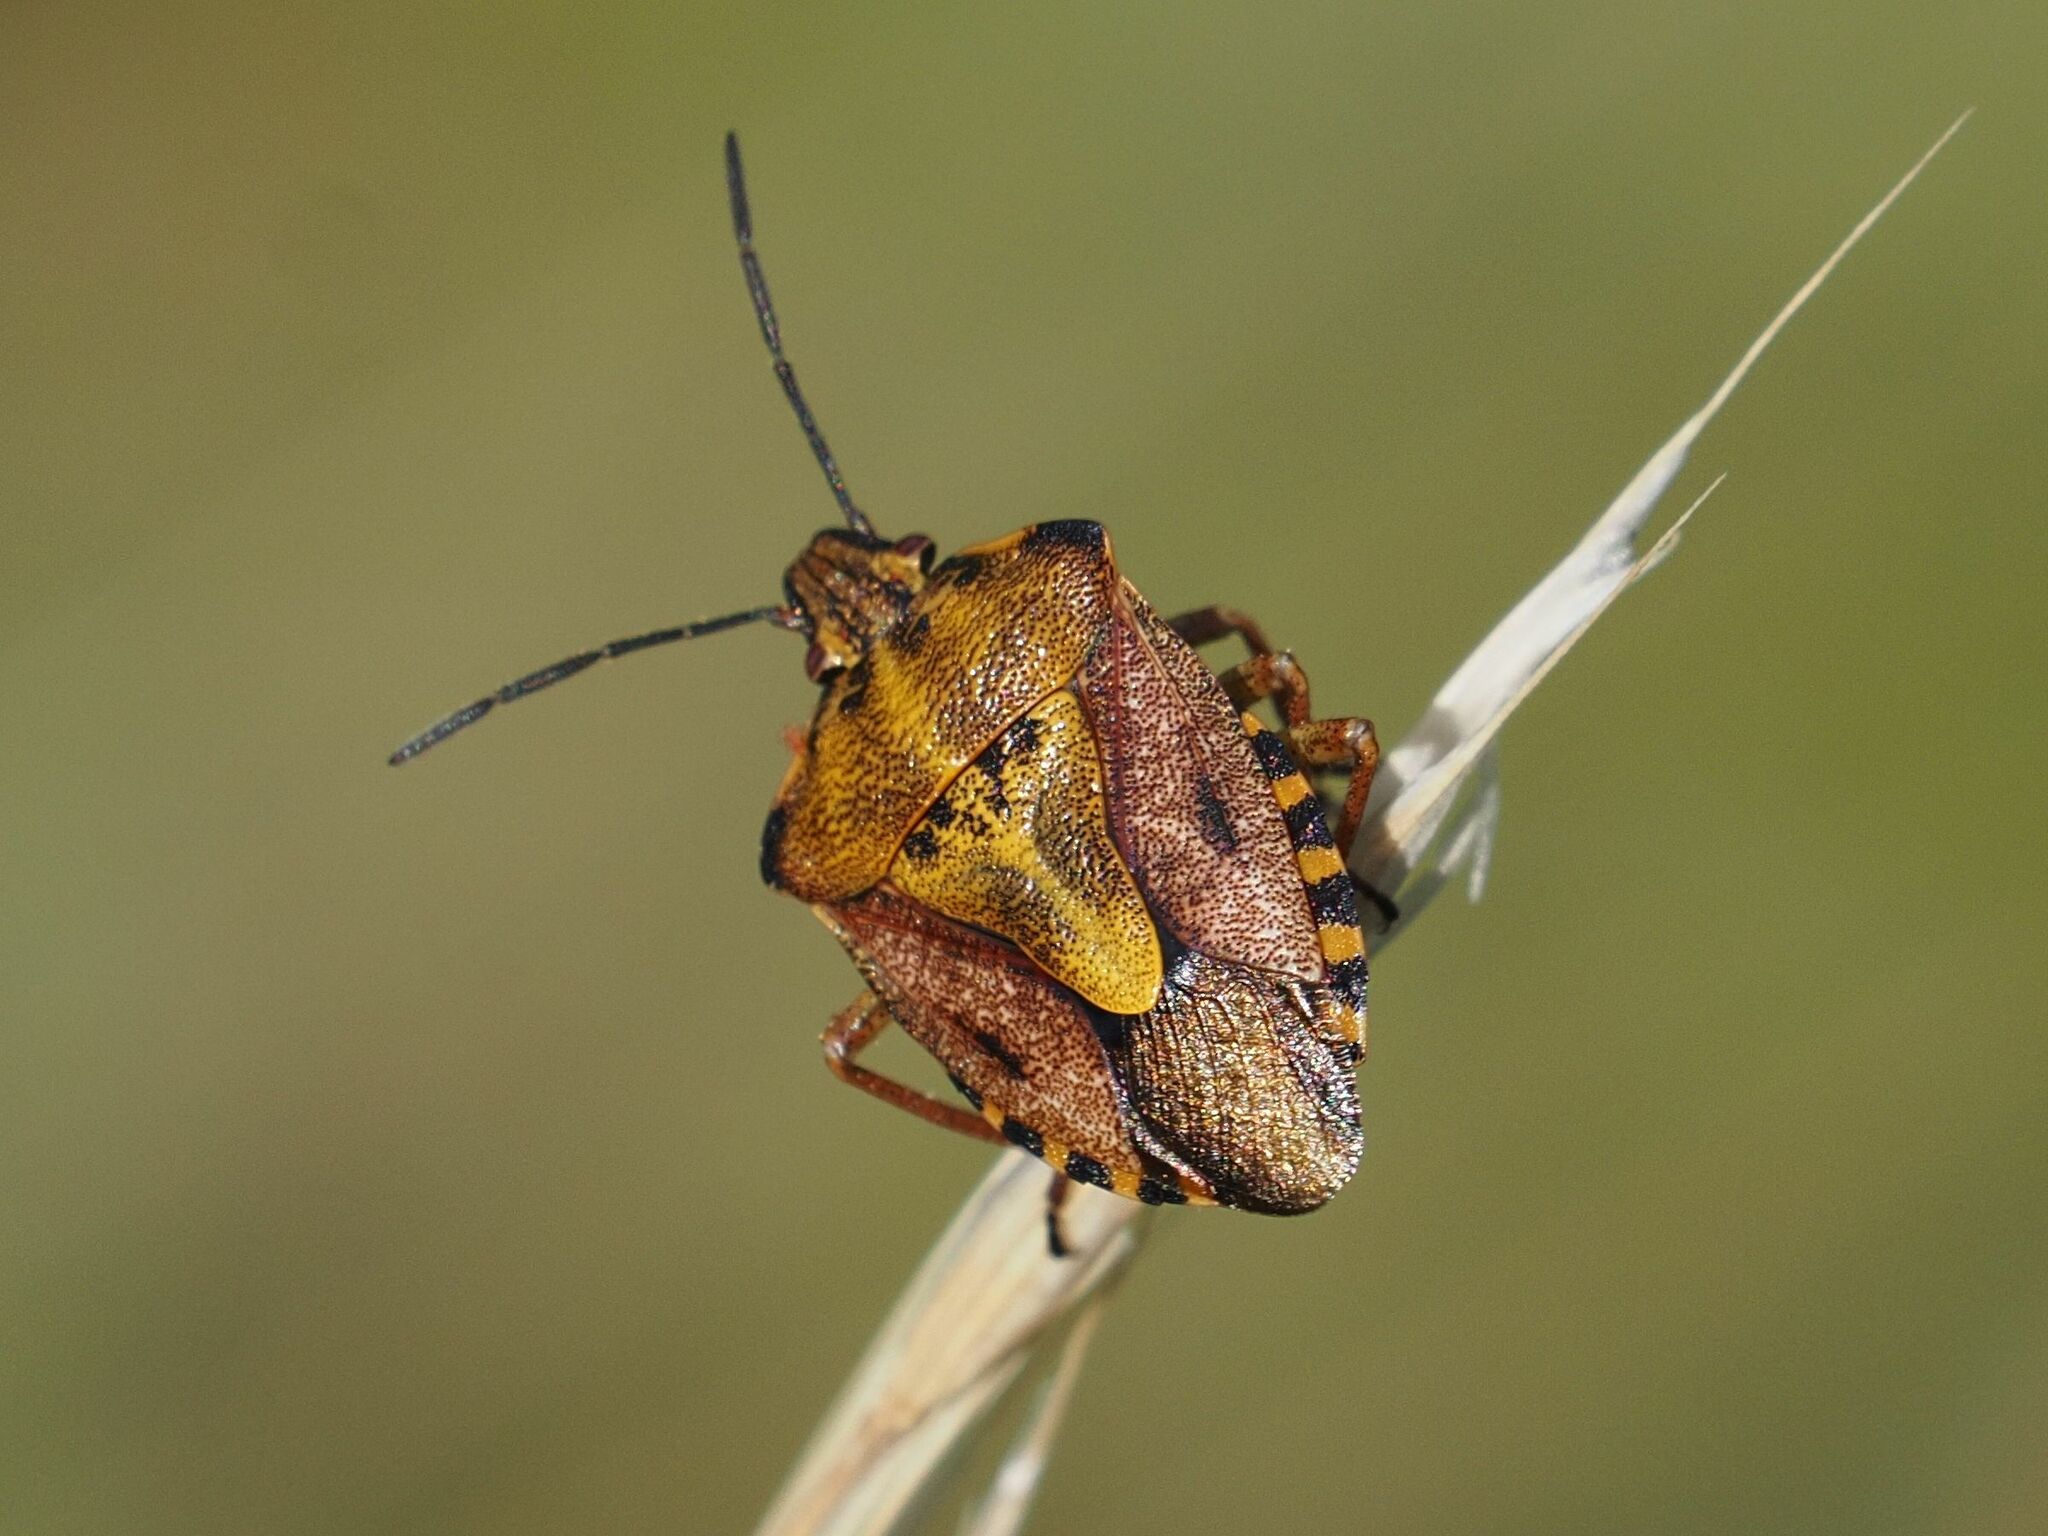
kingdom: Animalia
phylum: Arthropoda
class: Insecta
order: Hemiptera
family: Pentatomidae
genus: Carpocoris
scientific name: Carpocoris purpureipennis
